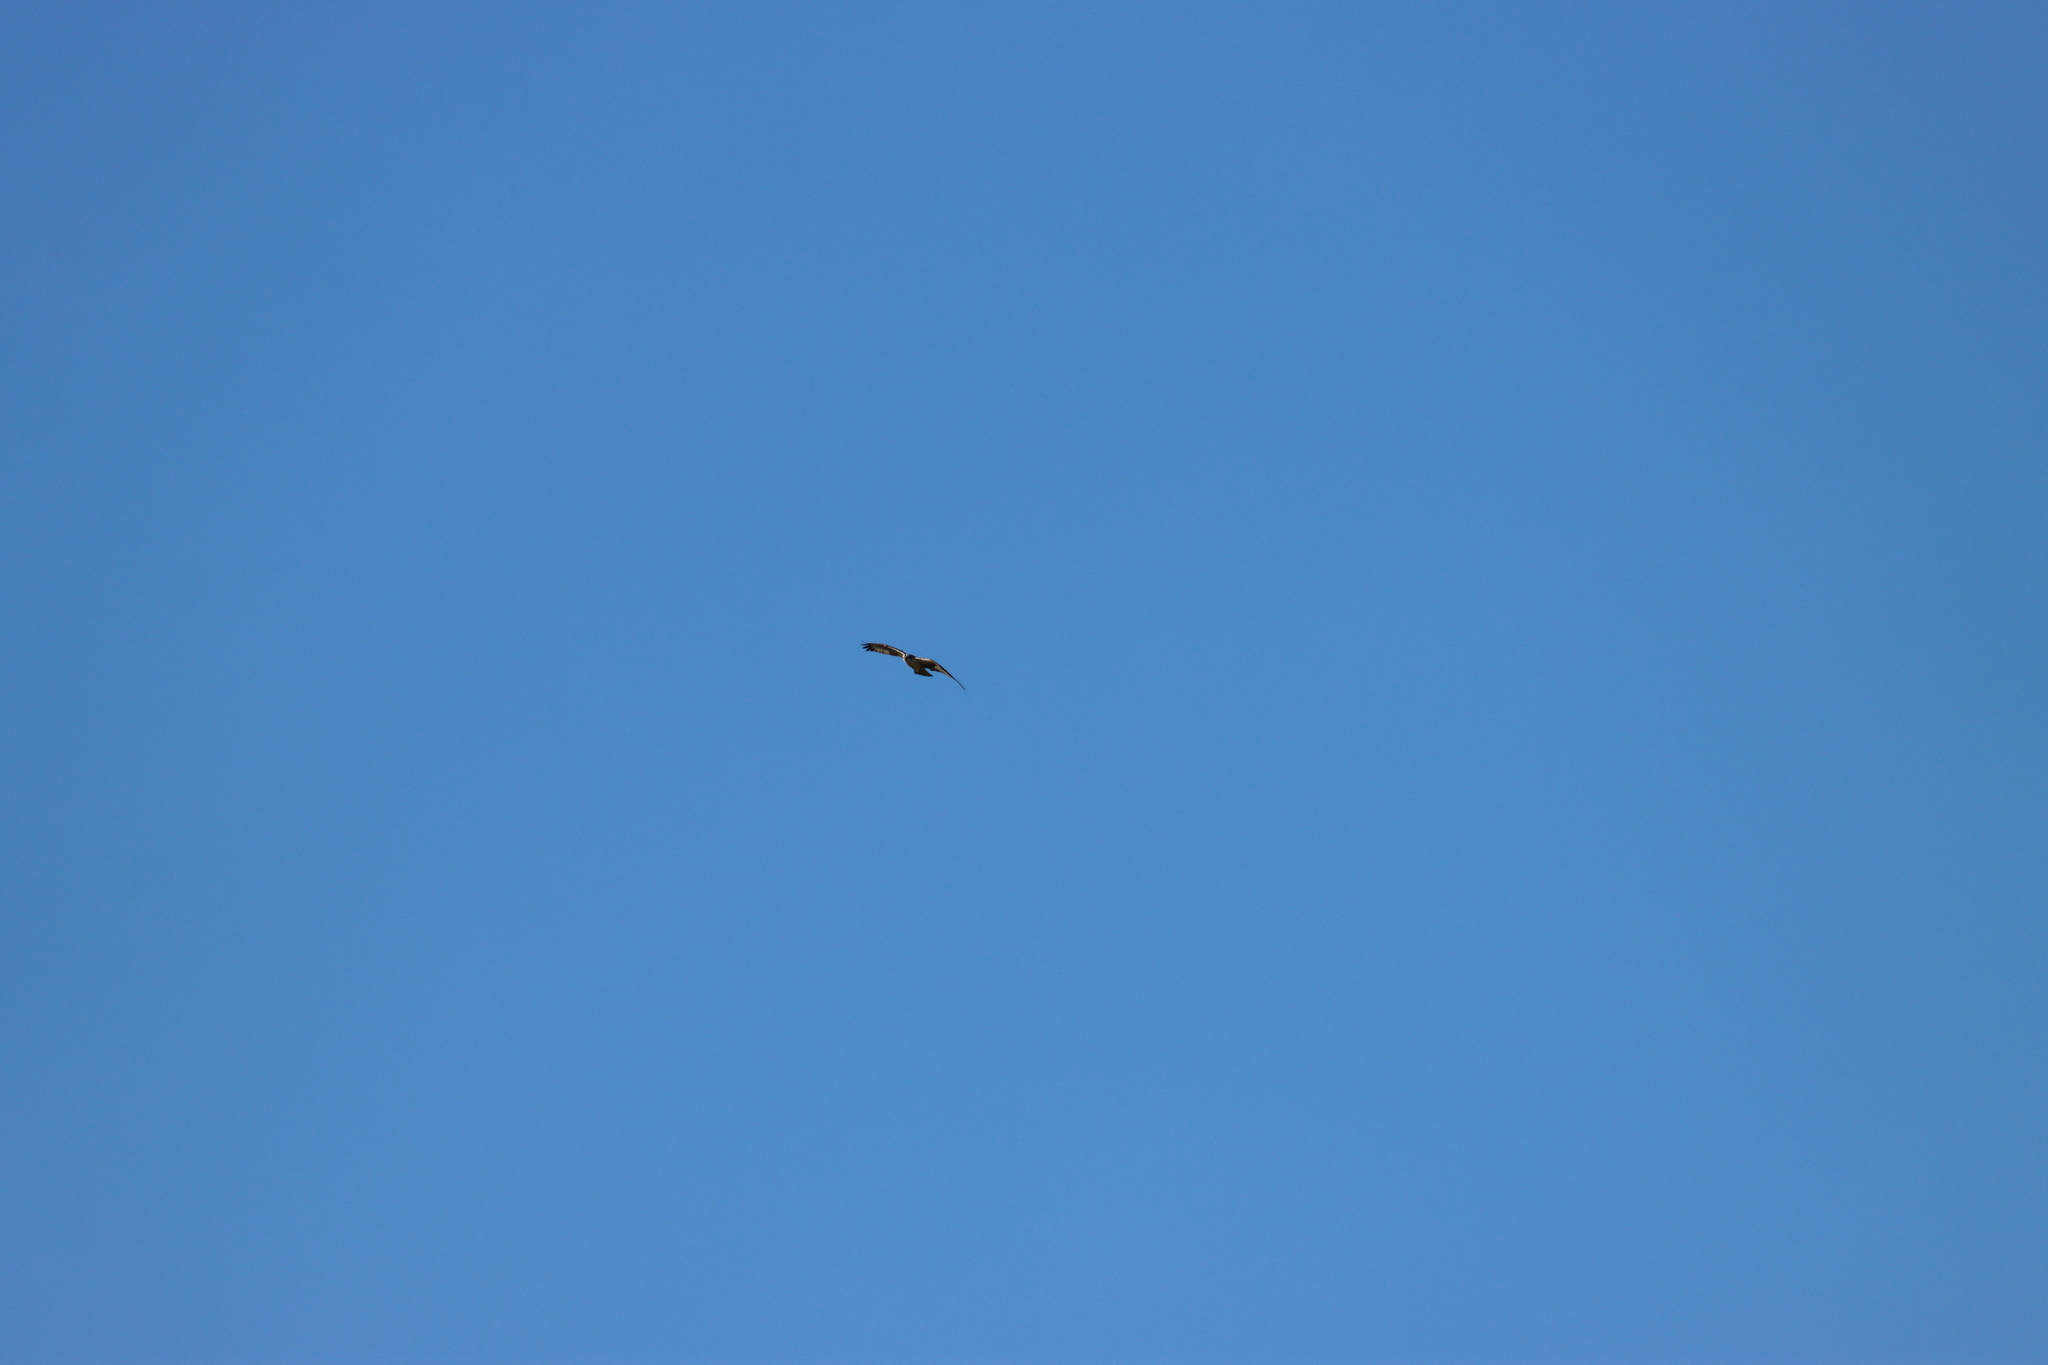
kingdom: Animalia
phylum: Chordata
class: Aves
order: Accipitriformes
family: Pandionidae
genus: Pandion
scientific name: Pandion haliaetus
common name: Osprey
